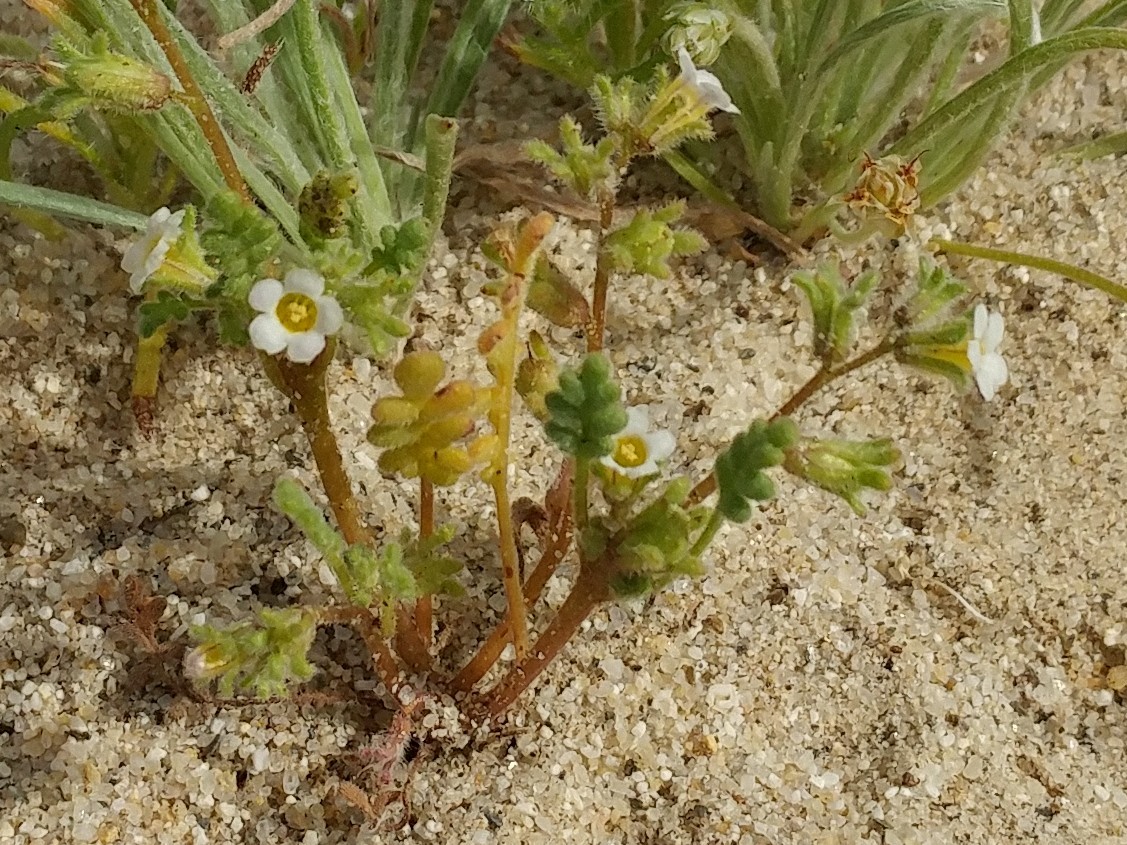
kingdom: Plantae
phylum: Tracheophyta
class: Magnoliopsida
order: Boraginales
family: Hydrophyllaceae
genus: Phacelia
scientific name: Phacelia ivesiana
